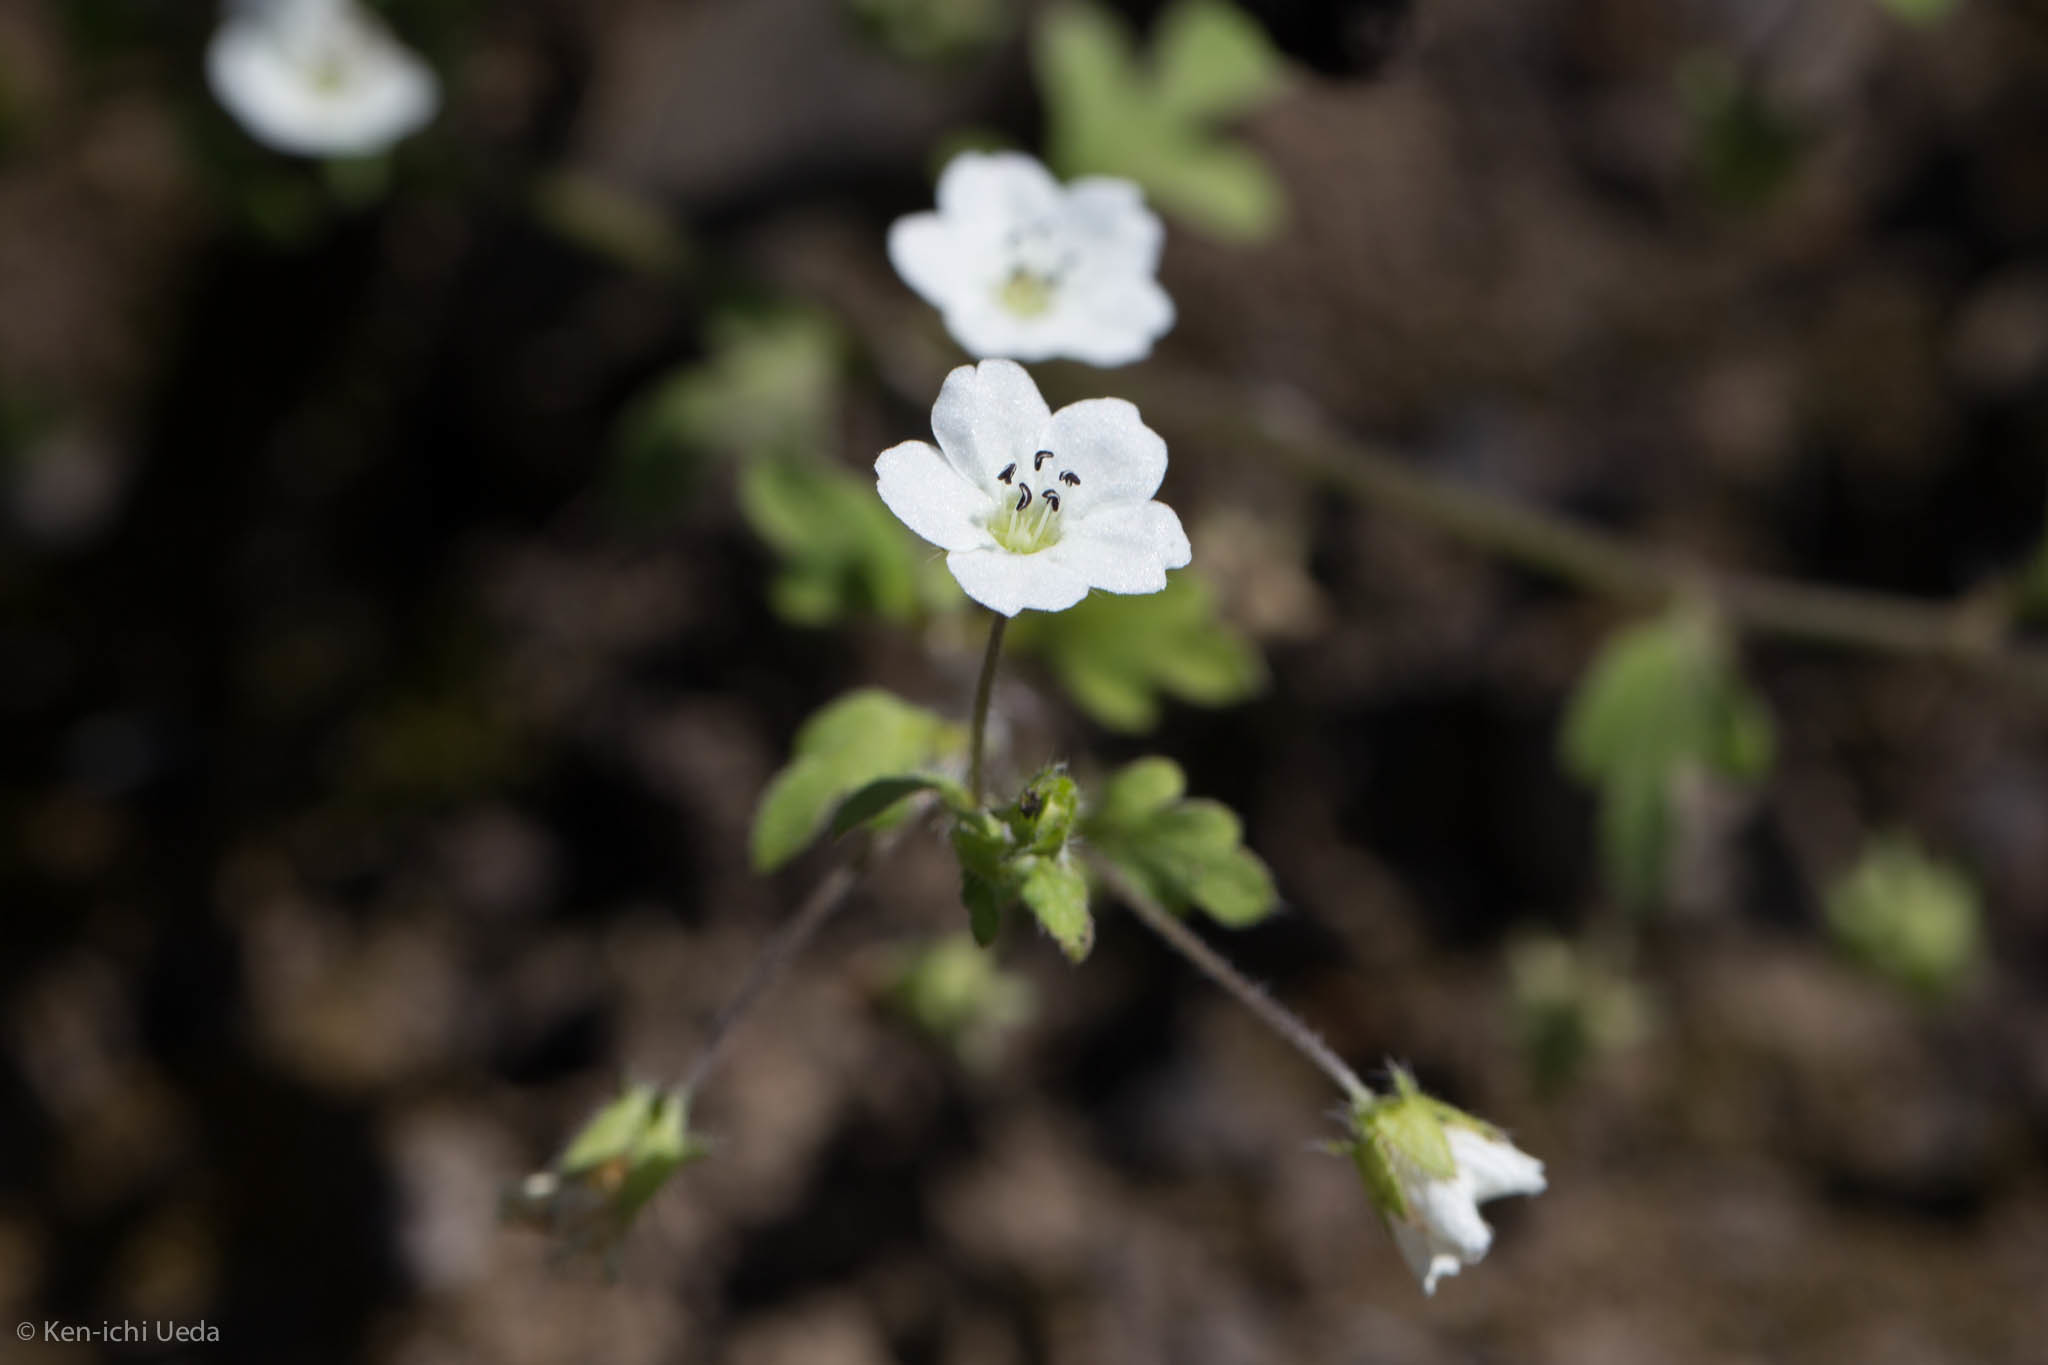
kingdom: Plantae
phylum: Tracheophyta
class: Magnoliopsida
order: Boraginales
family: Hydrophyllaceae
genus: Nemophila
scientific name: Nemophila heterophylla
